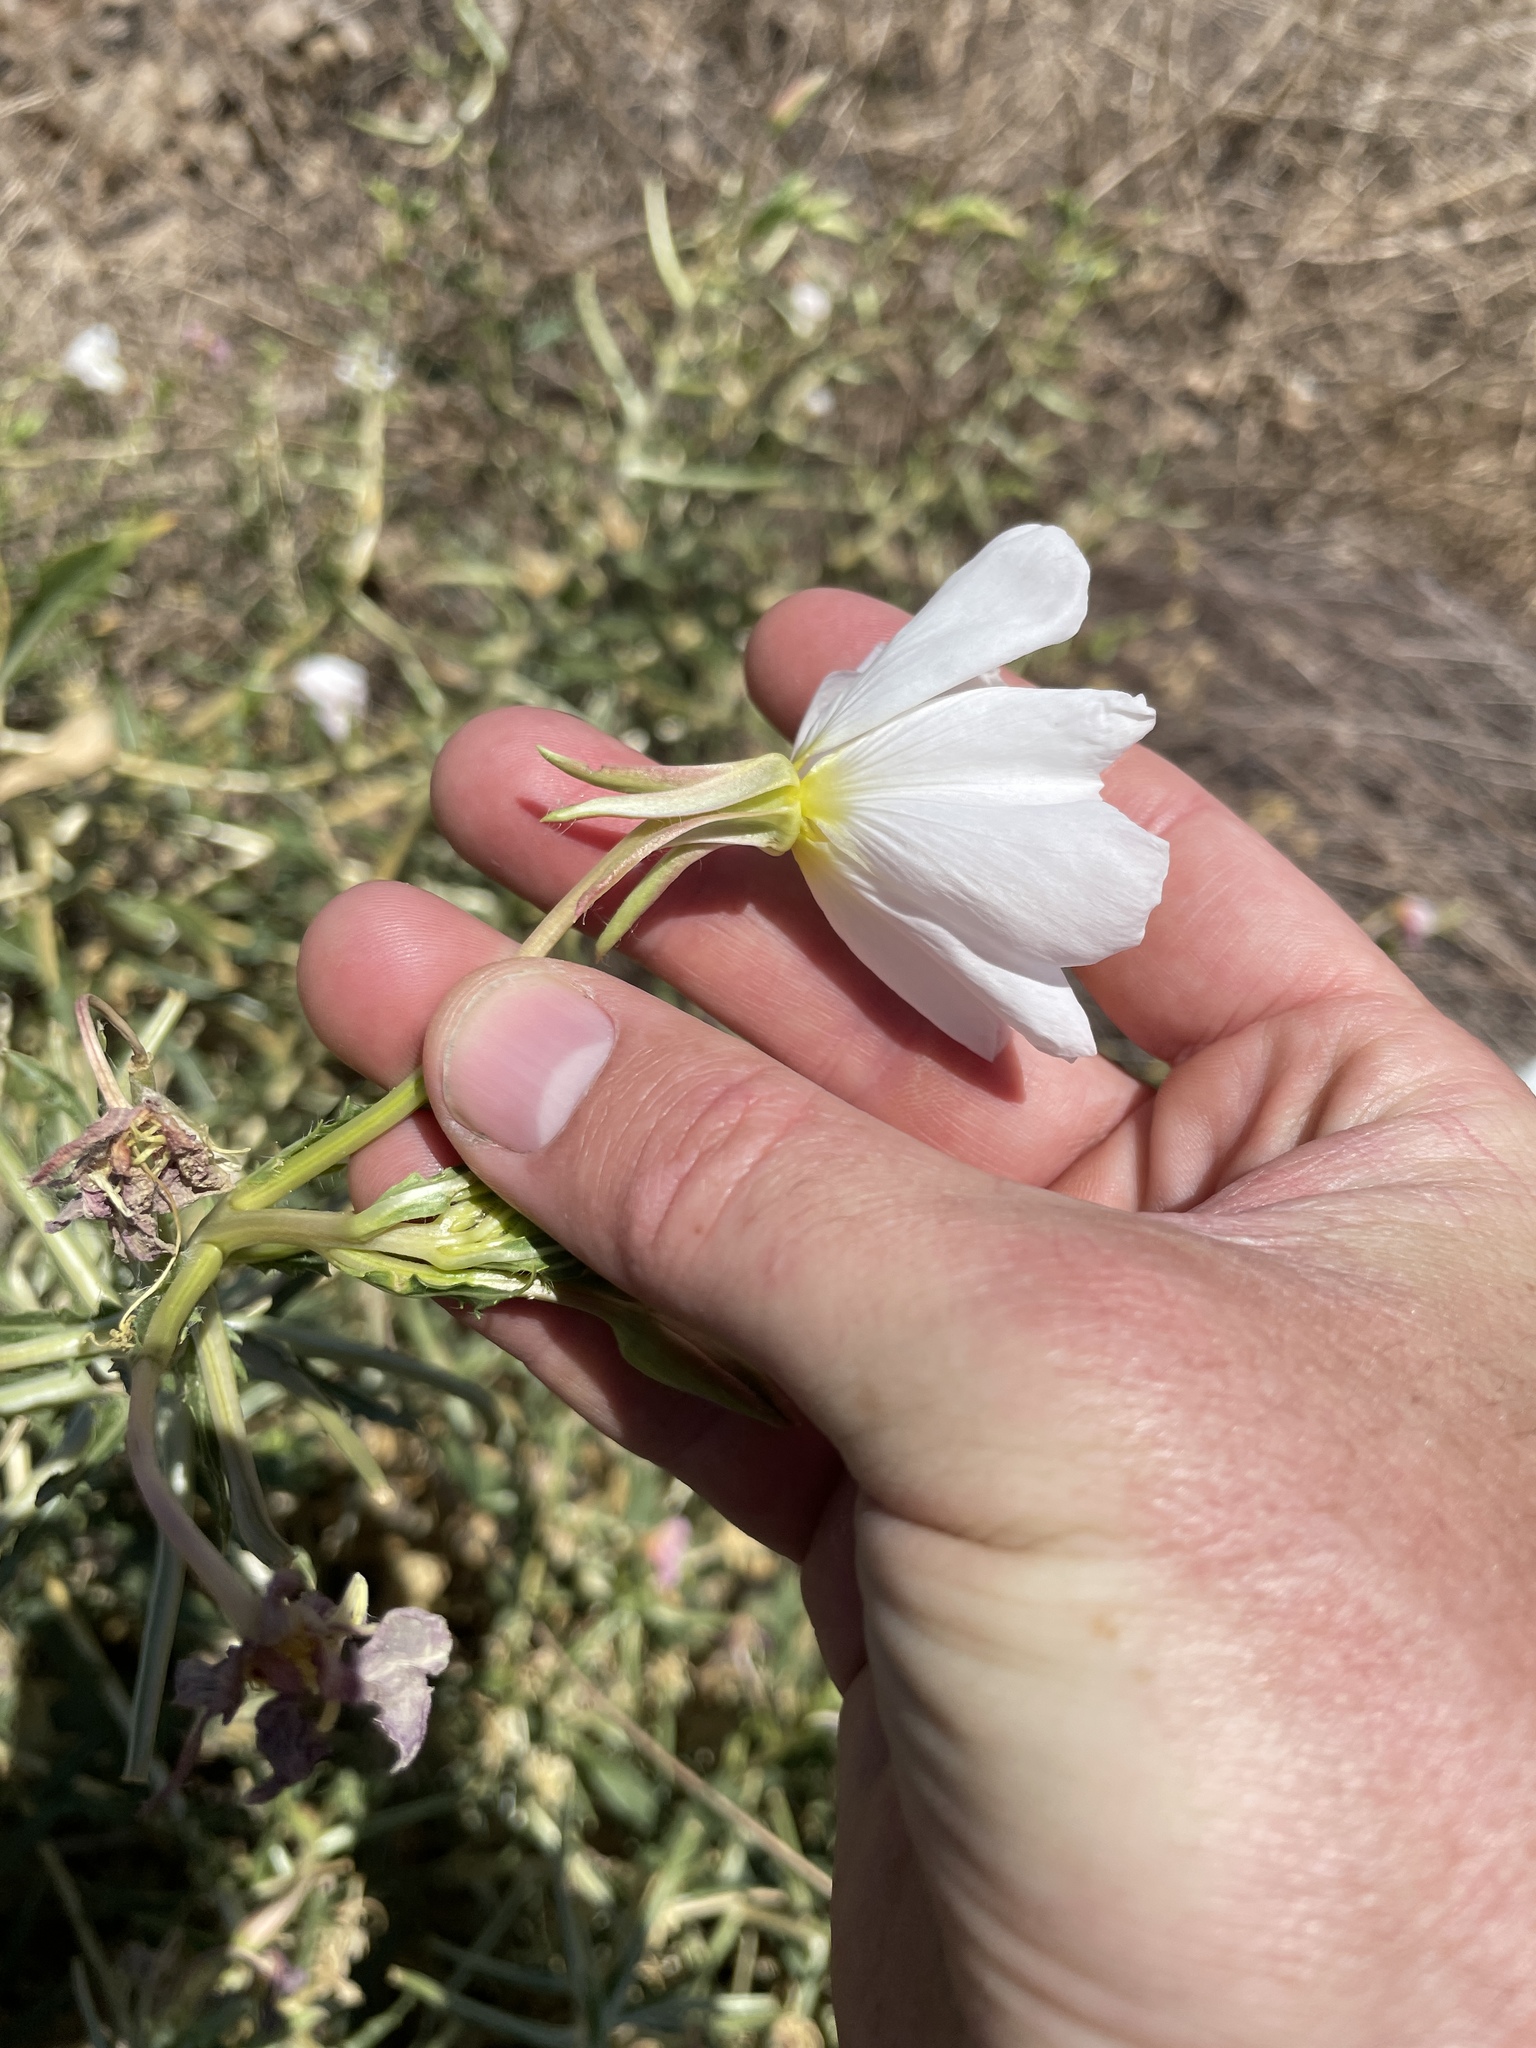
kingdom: Plantae
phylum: Tracheophyta
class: Magnoliopsida
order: Myrtales
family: Onagraceae
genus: Oenothera
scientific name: Oenothera deltoides
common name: Basket evening-primrose
